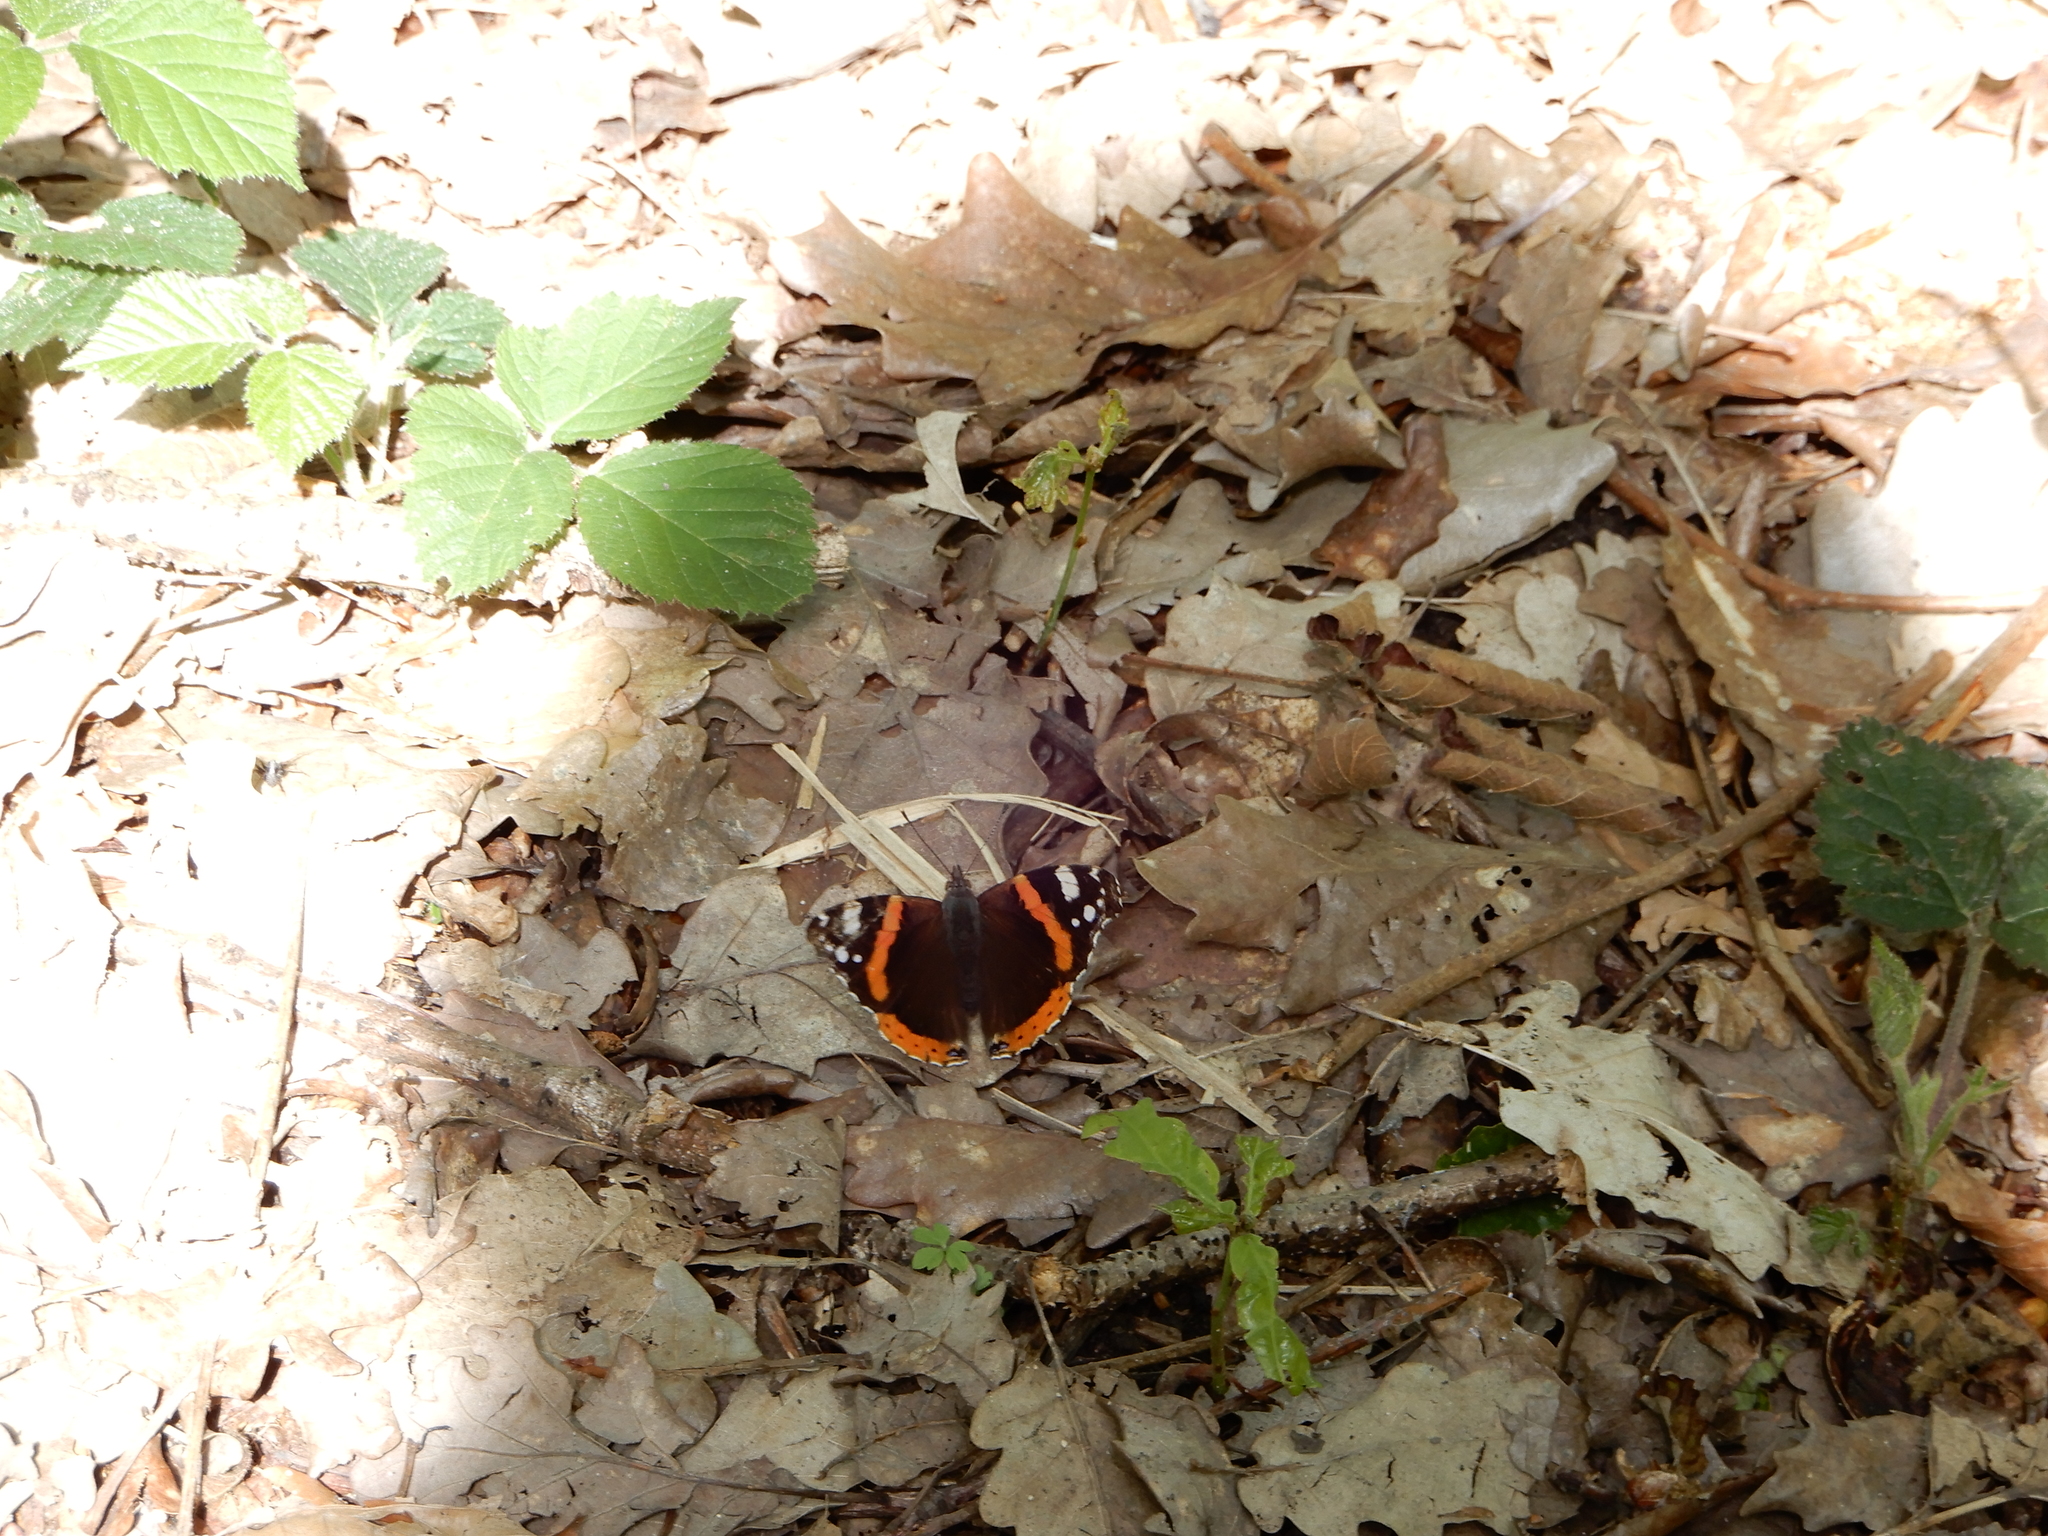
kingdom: Animalia
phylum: Arthropoda
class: Insecta
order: Lepidoptera
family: Nymphalidae
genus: Vanessa
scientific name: Vanessa atalanta
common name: Red admiral
